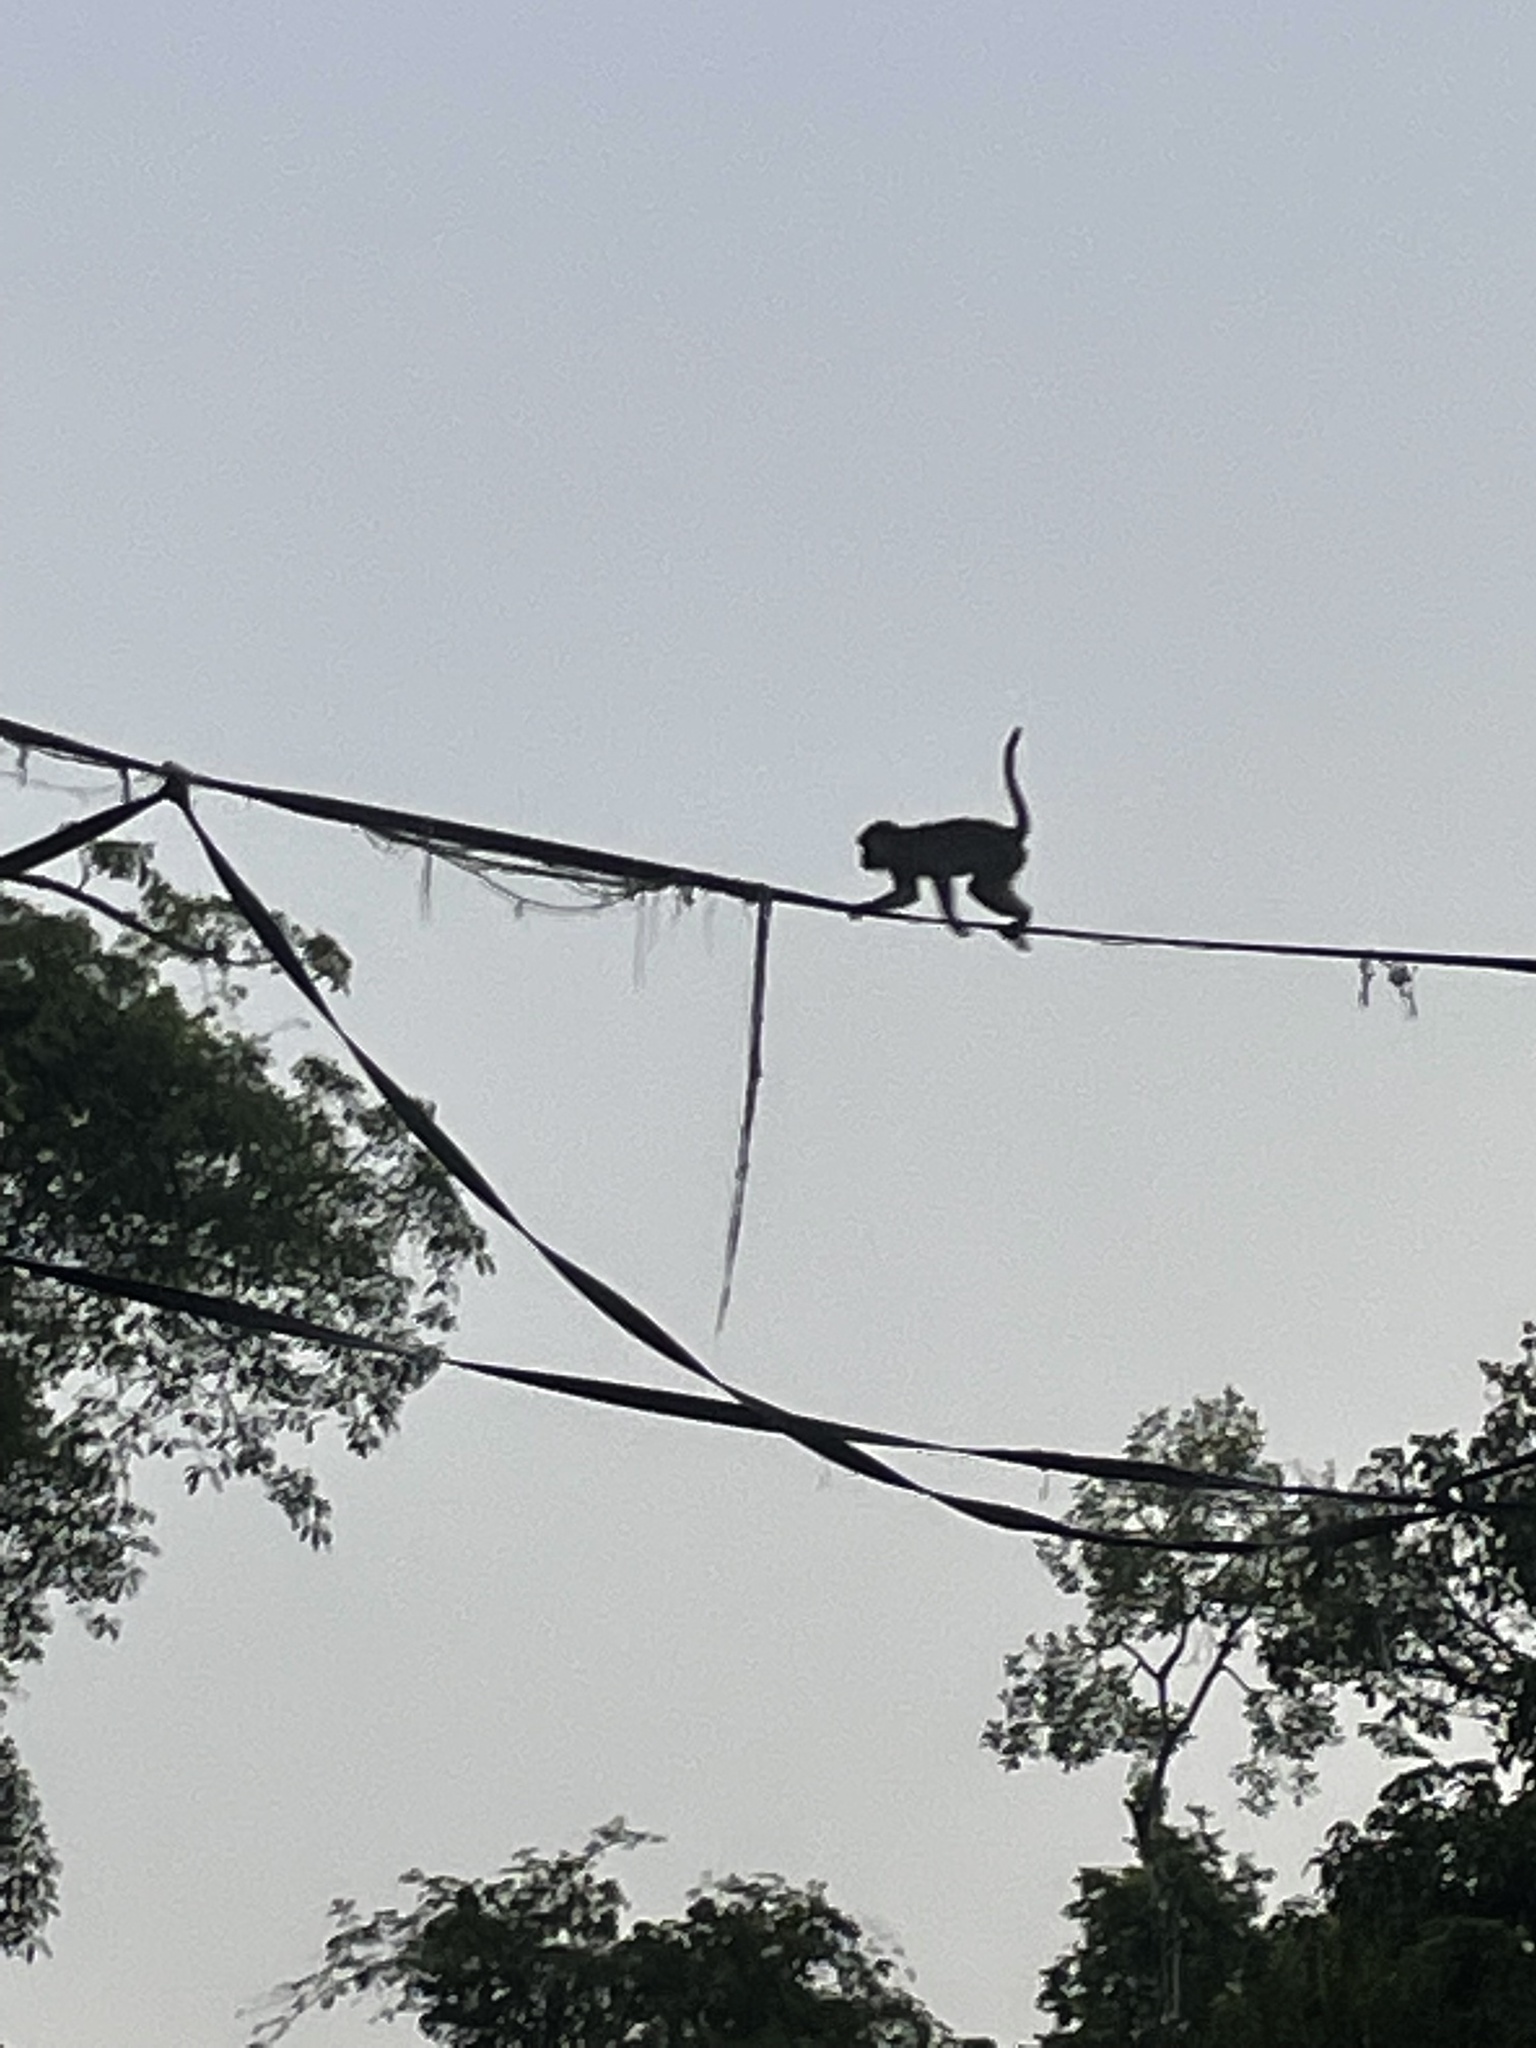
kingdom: Animalia
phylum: Chordata
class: Mammalia
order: Primates
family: Cercopithecidae
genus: Macaca
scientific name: Macaca fascicularis
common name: Crab-eating macaque
